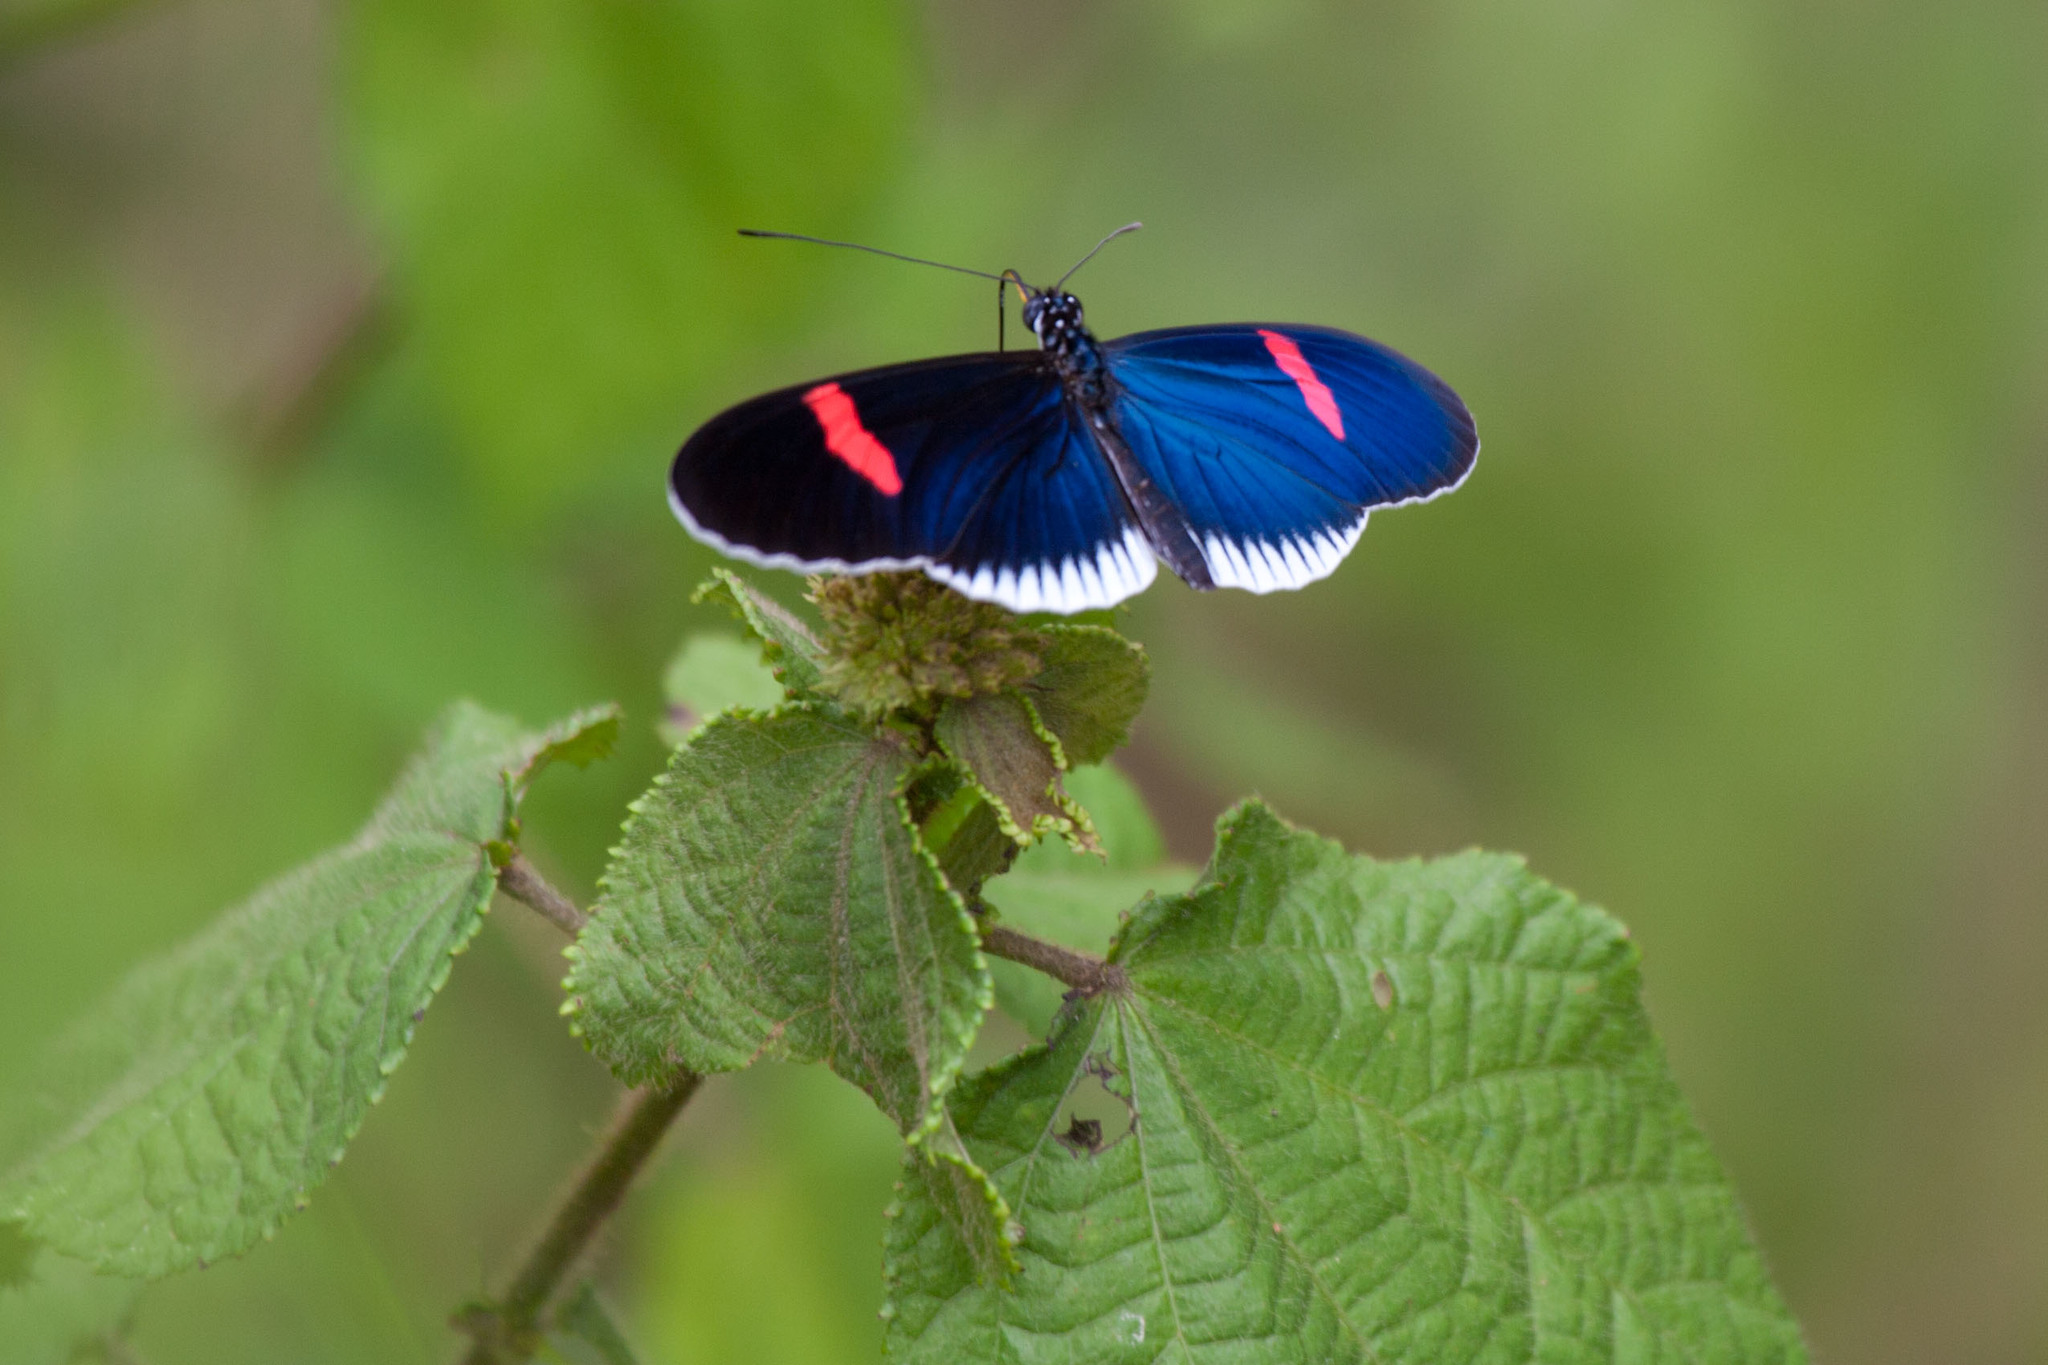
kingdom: Animalia
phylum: Arthropoda
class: Insecta
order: Lepidoptera
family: Nymphalidae
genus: Heliconius
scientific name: Heliconius erato
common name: Common patch longwing
